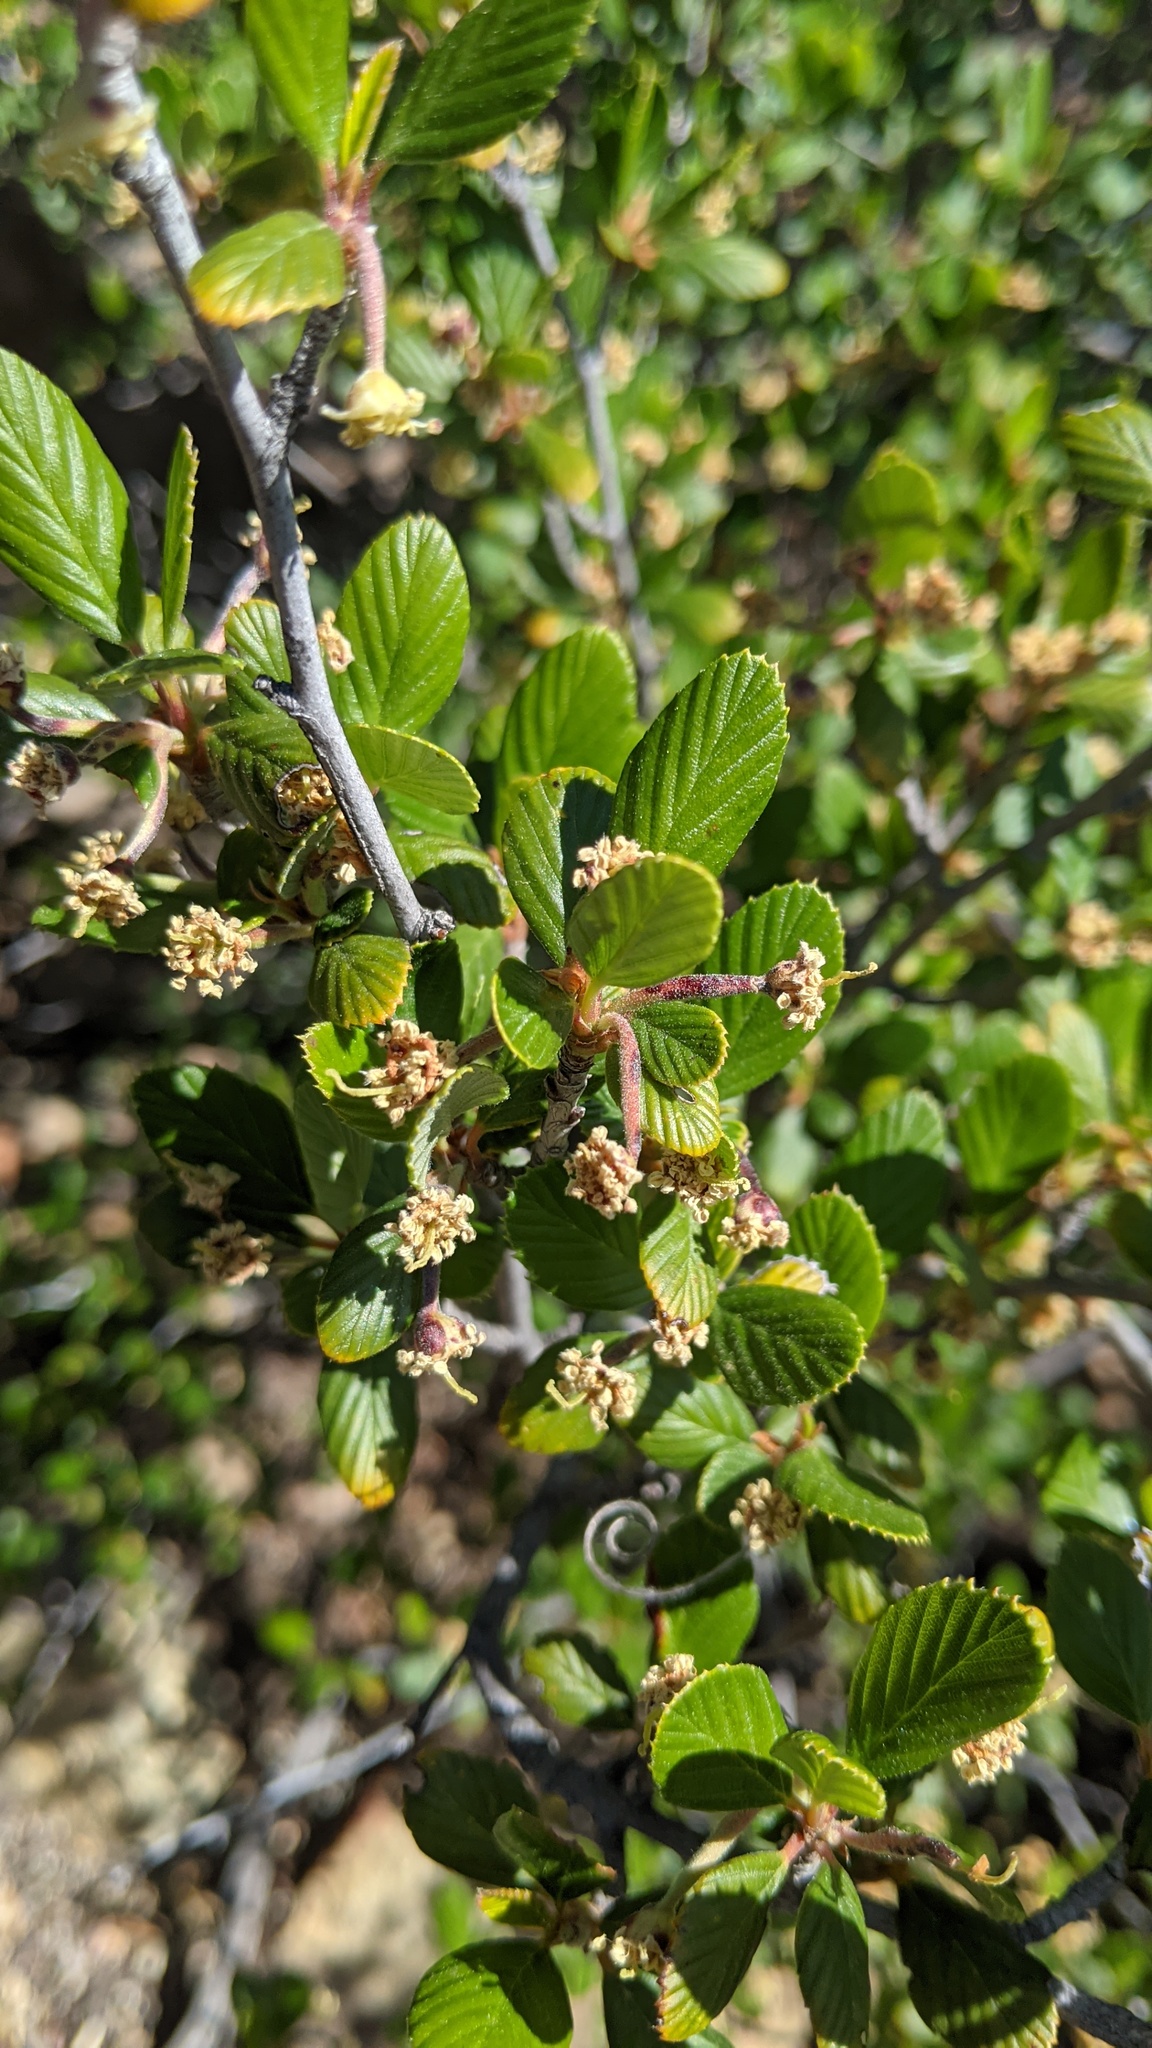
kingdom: Plantae
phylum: Tracheophyta
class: Magnoliopsida
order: Rosales
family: Rosaceae
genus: Cercocarpus
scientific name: Cercocarpus betuloides
